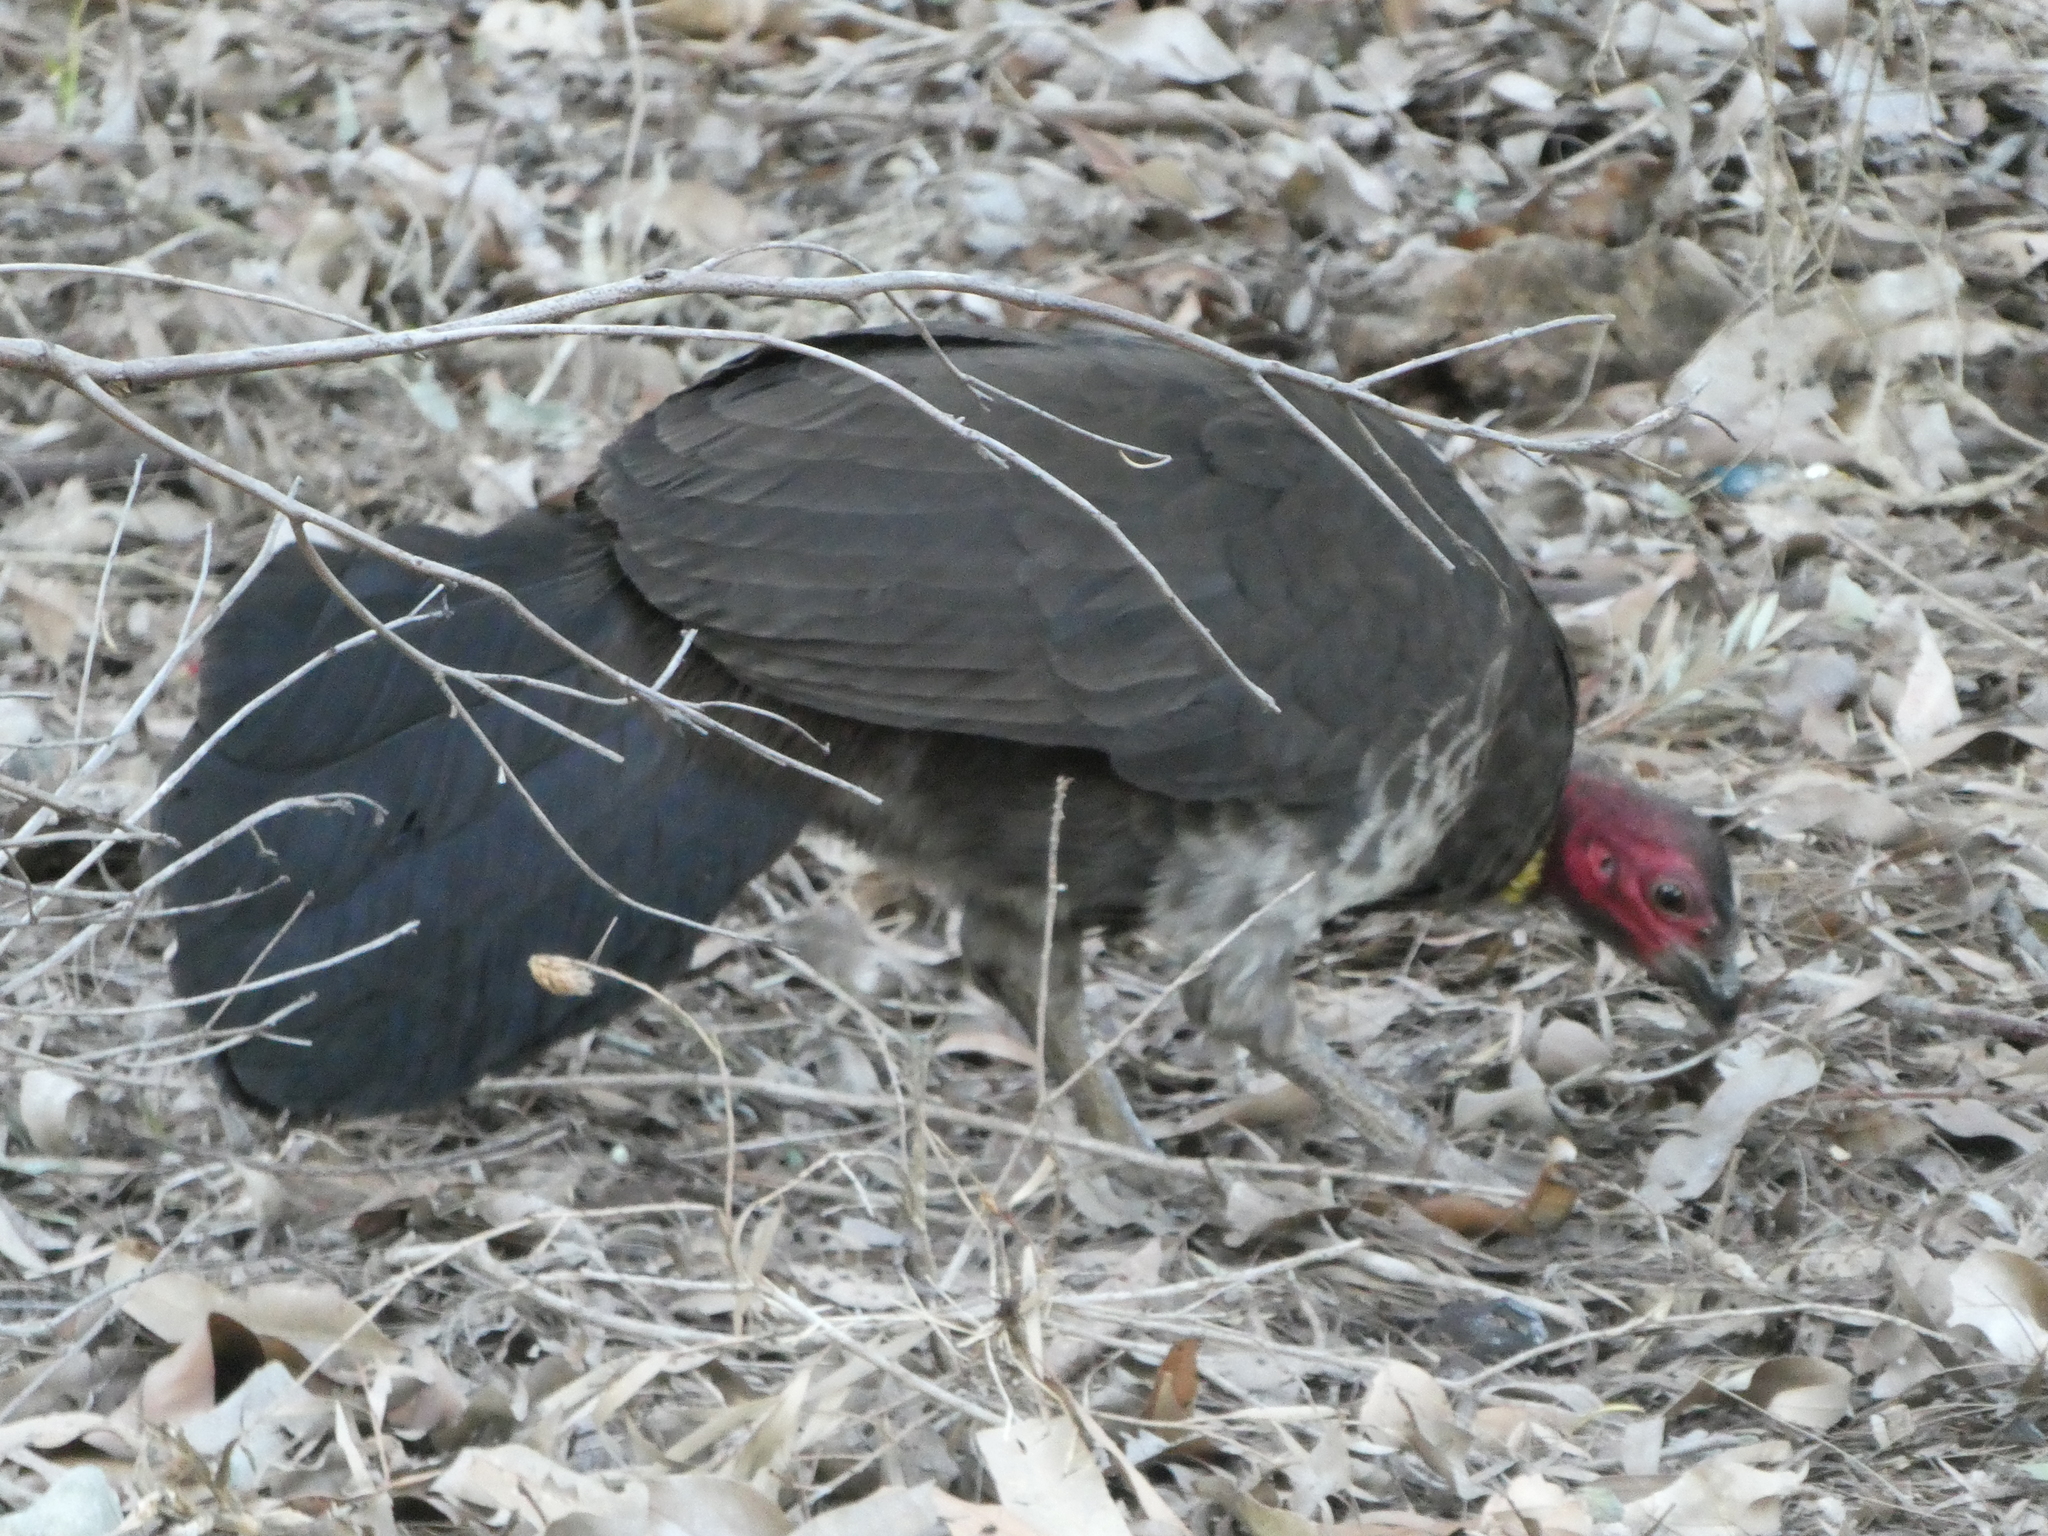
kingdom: Animalia
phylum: Chordata
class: Aves
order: Galliformes
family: Megapodiidae
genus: Alectura
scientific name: Alectura lathami
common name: Australian brushturkey
